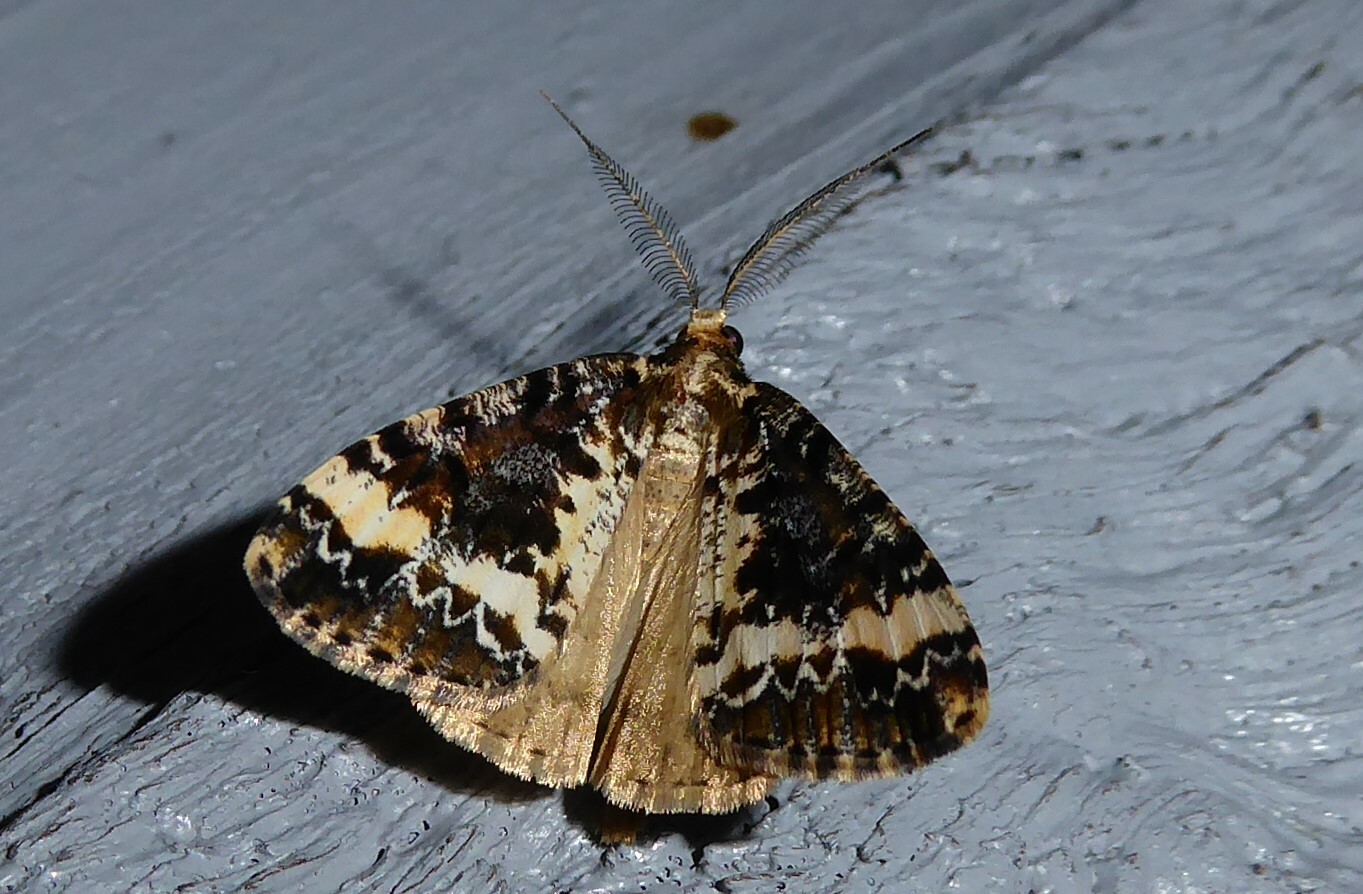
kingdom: Animalia
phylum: Arthropoda
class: Insecta
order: Lepidoptera
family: Geometridae
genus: Pseudocoremia
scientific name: Pseudocoremia leucelaea
